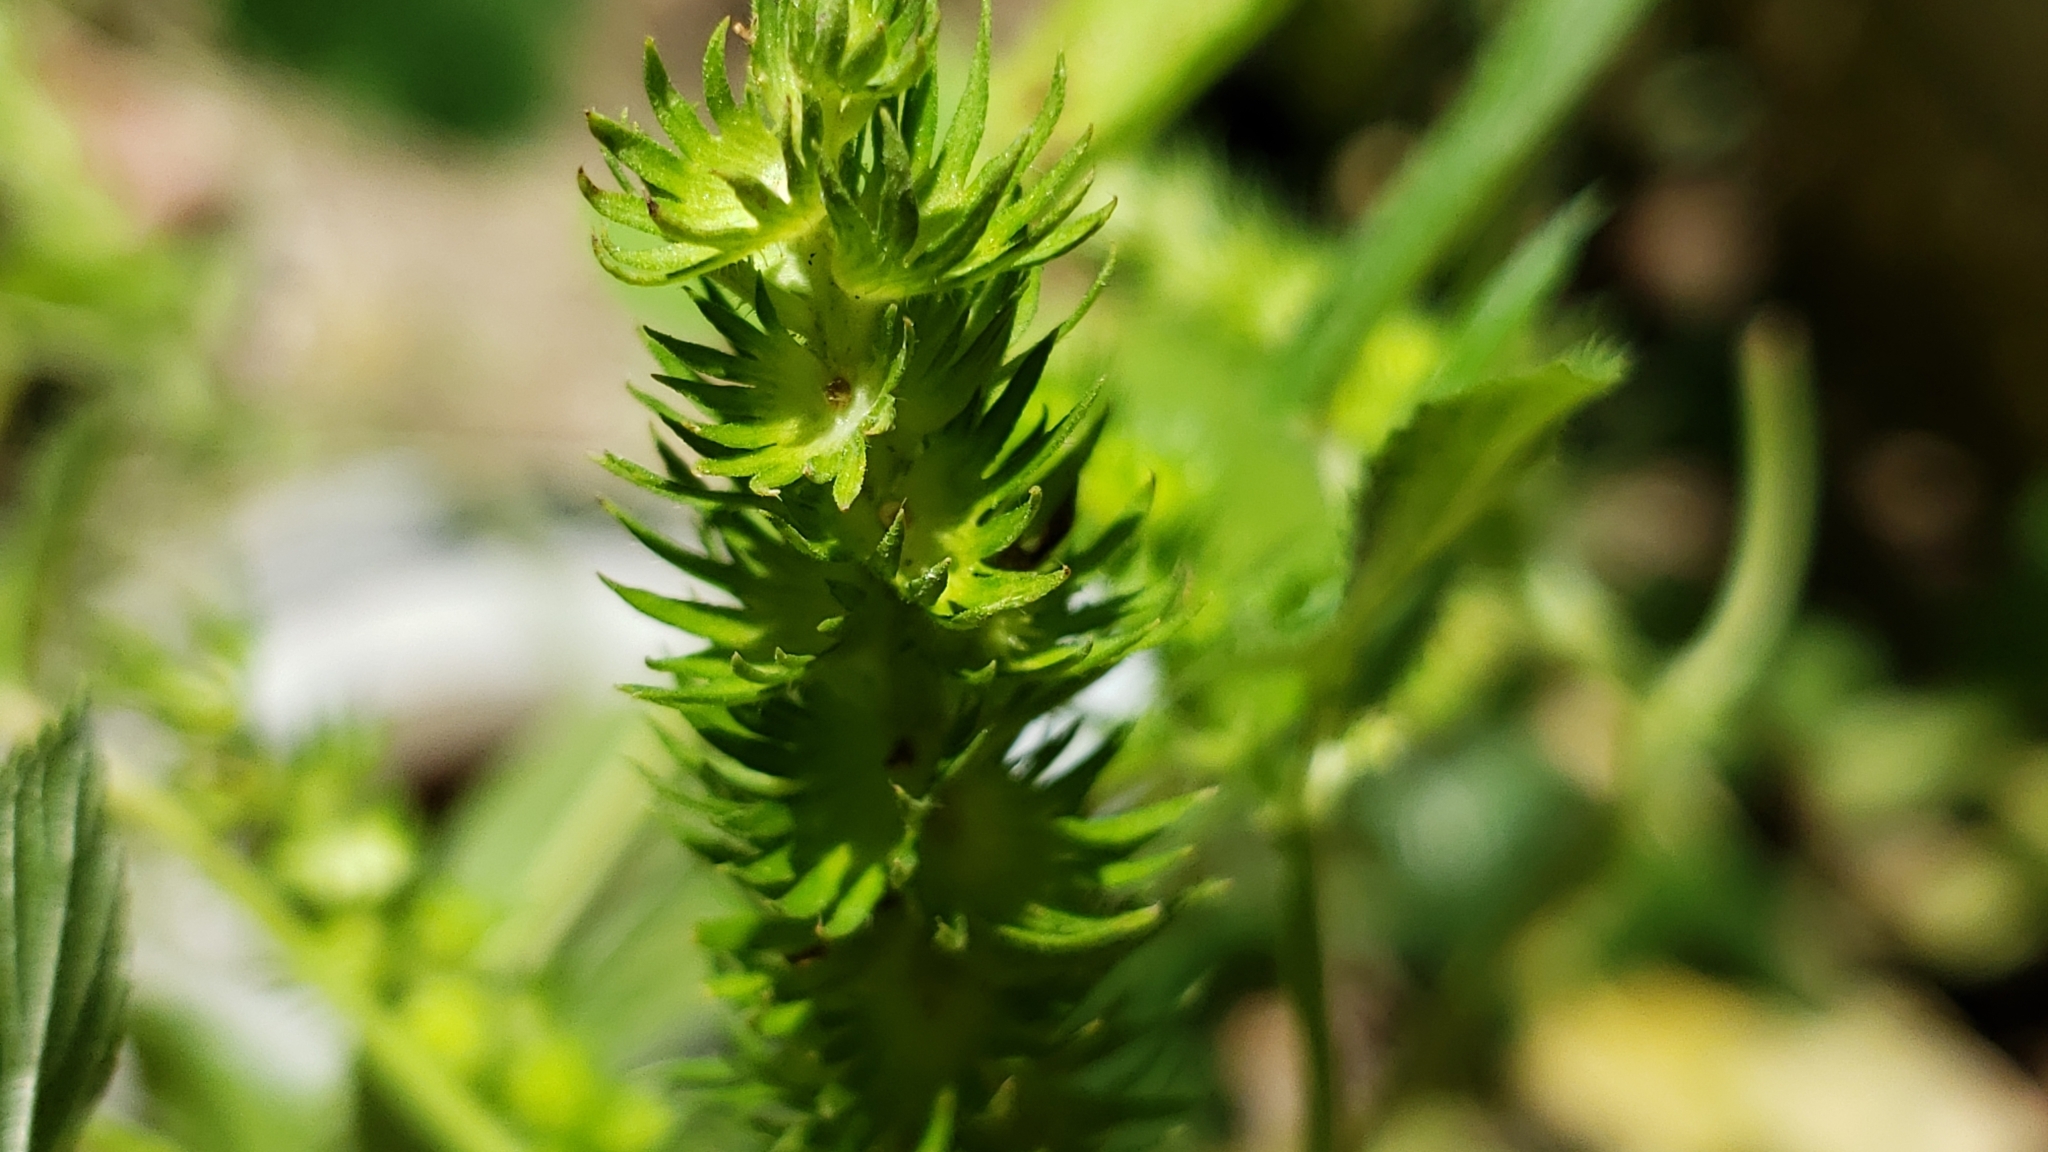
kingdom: Plantae
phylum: Tracheophyta
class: Magnoliopsida
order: Malpighiales
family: Euphorbiaceae
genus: Acalypha
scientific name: Acalypha ostryifolia
